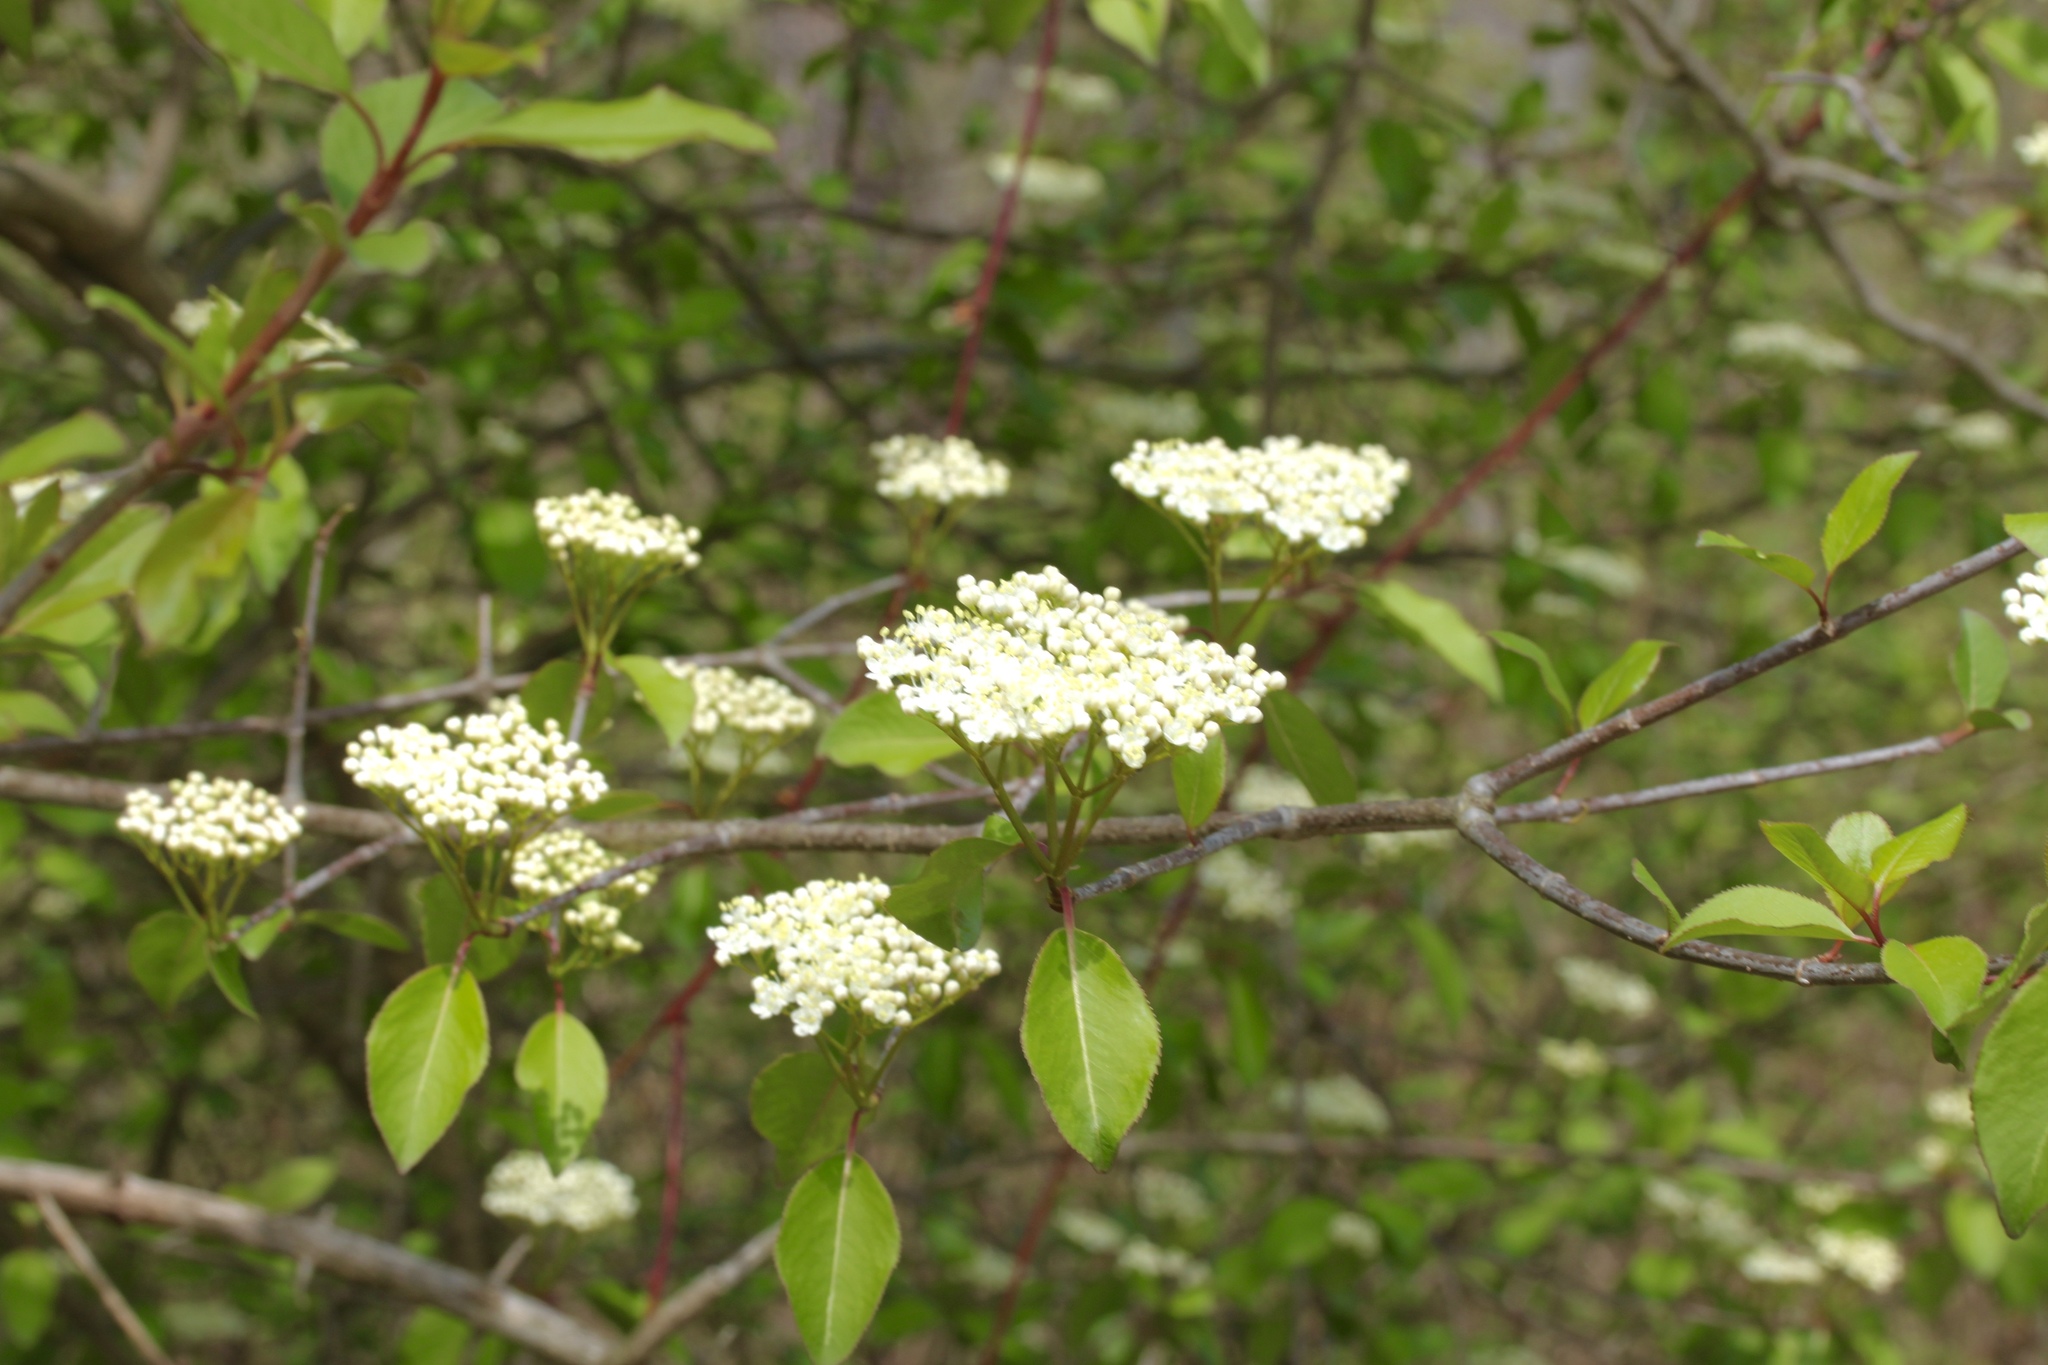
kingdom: Plantae
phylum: Tracheophyta
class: Magnoliopsida
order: Dipsacales
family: Viburnaceae
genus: Viburnum
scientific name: Viburnum prunifolium
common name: Black haw
